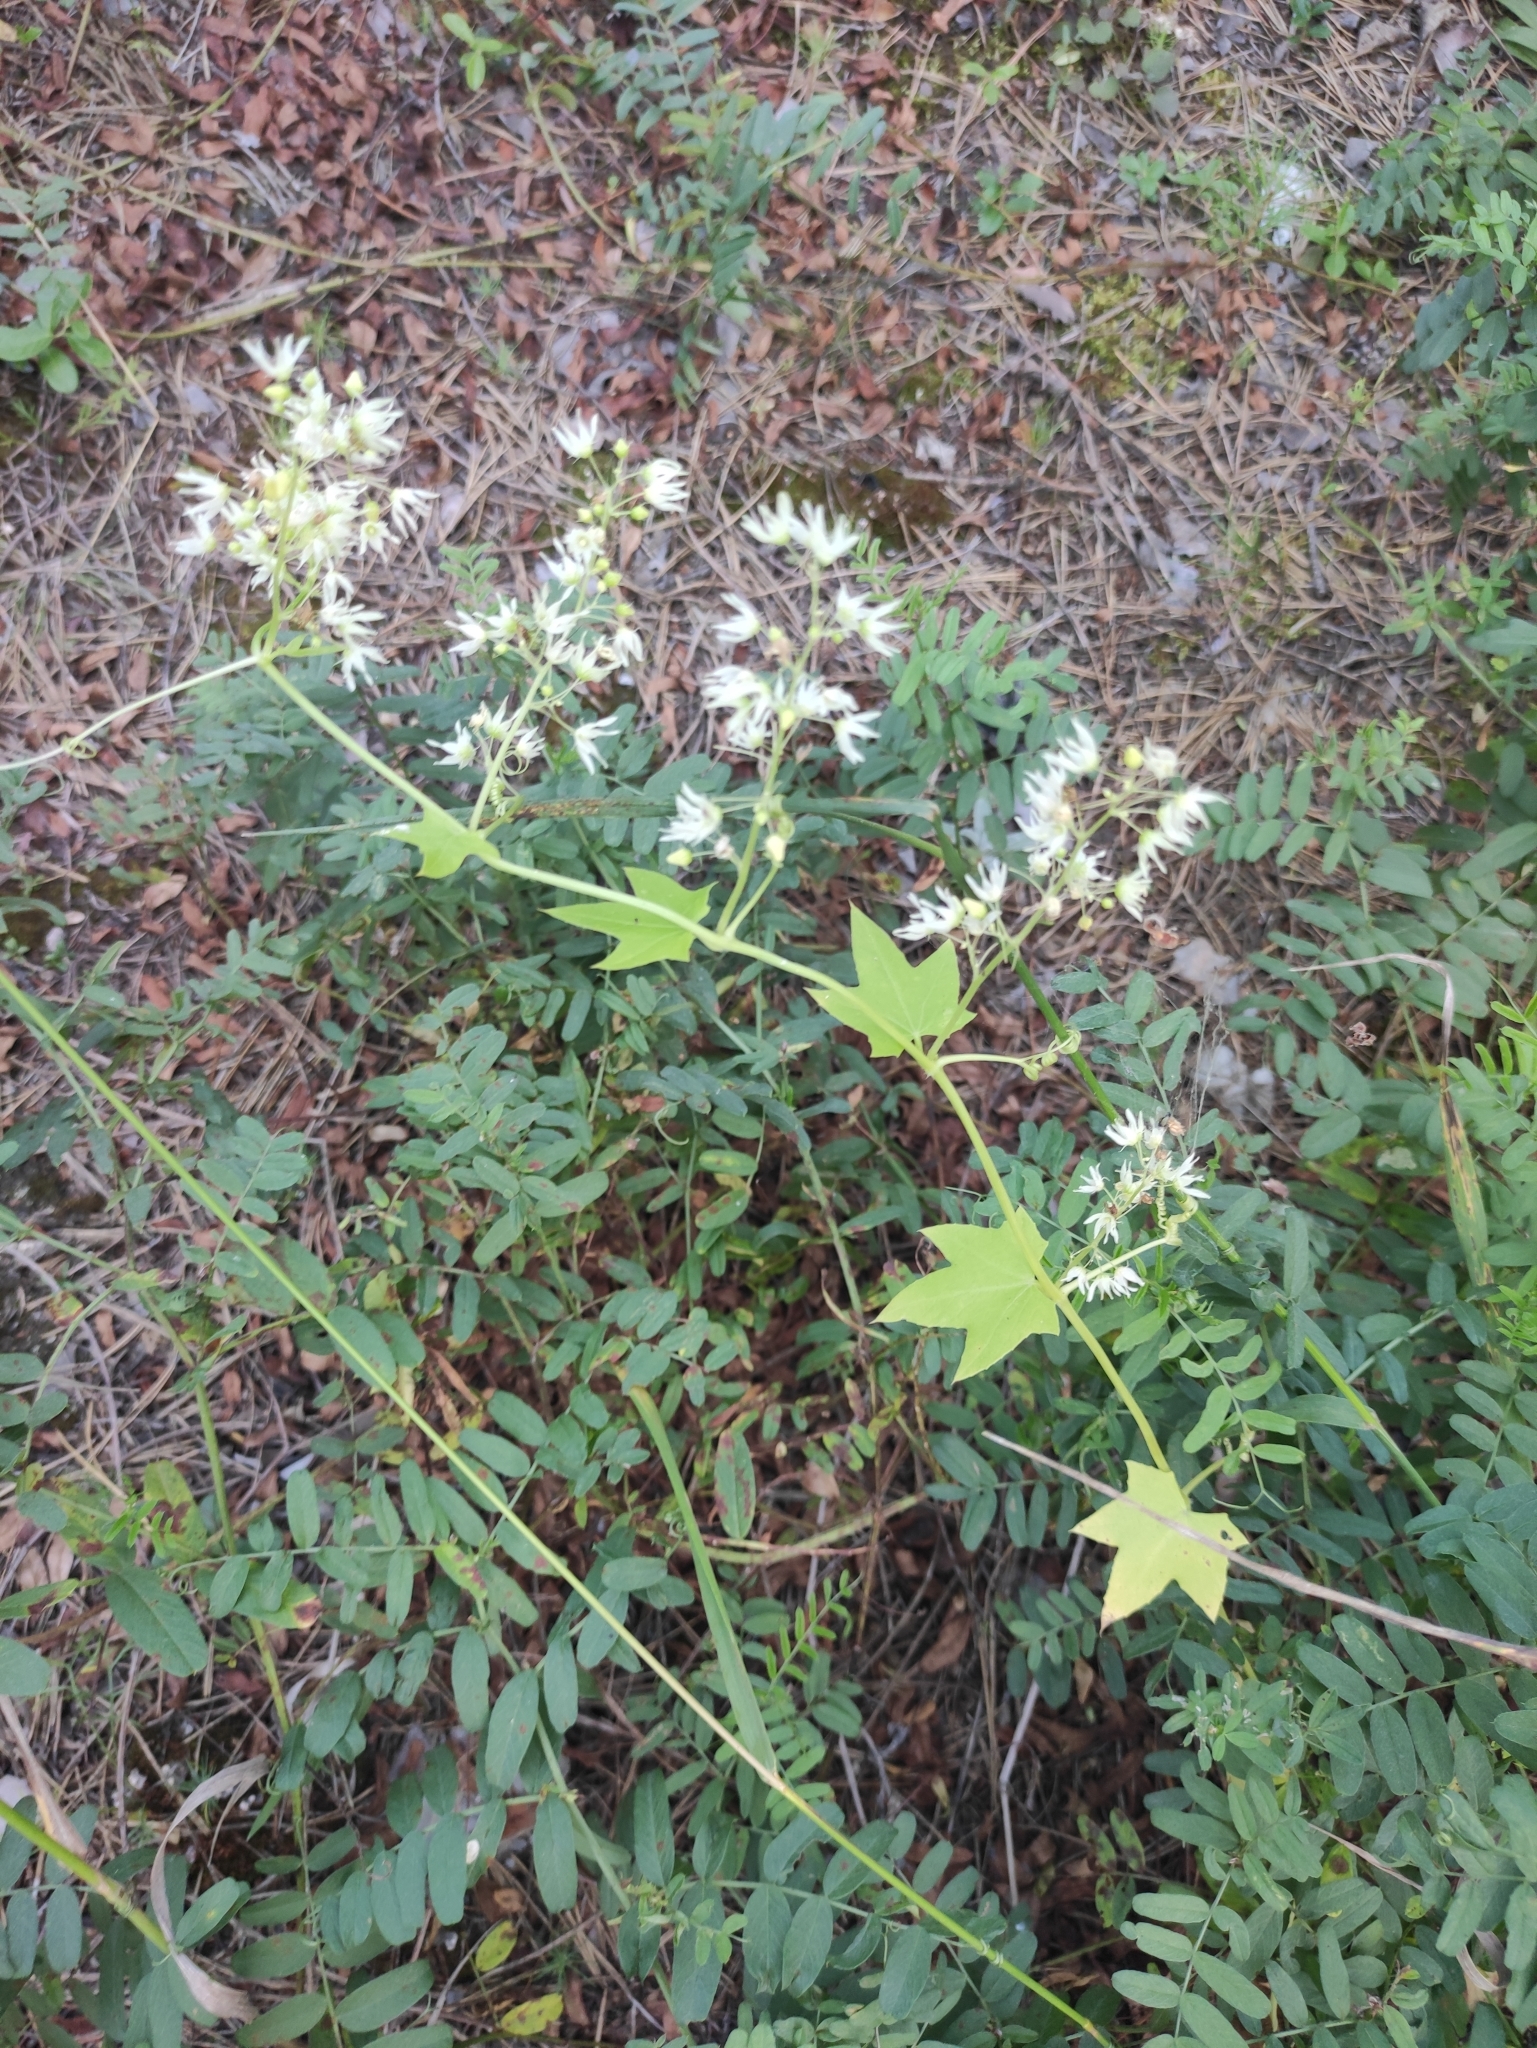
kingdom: Plantae
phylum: Tracheophyta
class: Magnoliopsida
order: Cucurbitales
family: Cucurbitaceae
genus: Echinocystis
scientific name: Echinocystis lobata
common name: Wild cucumber
